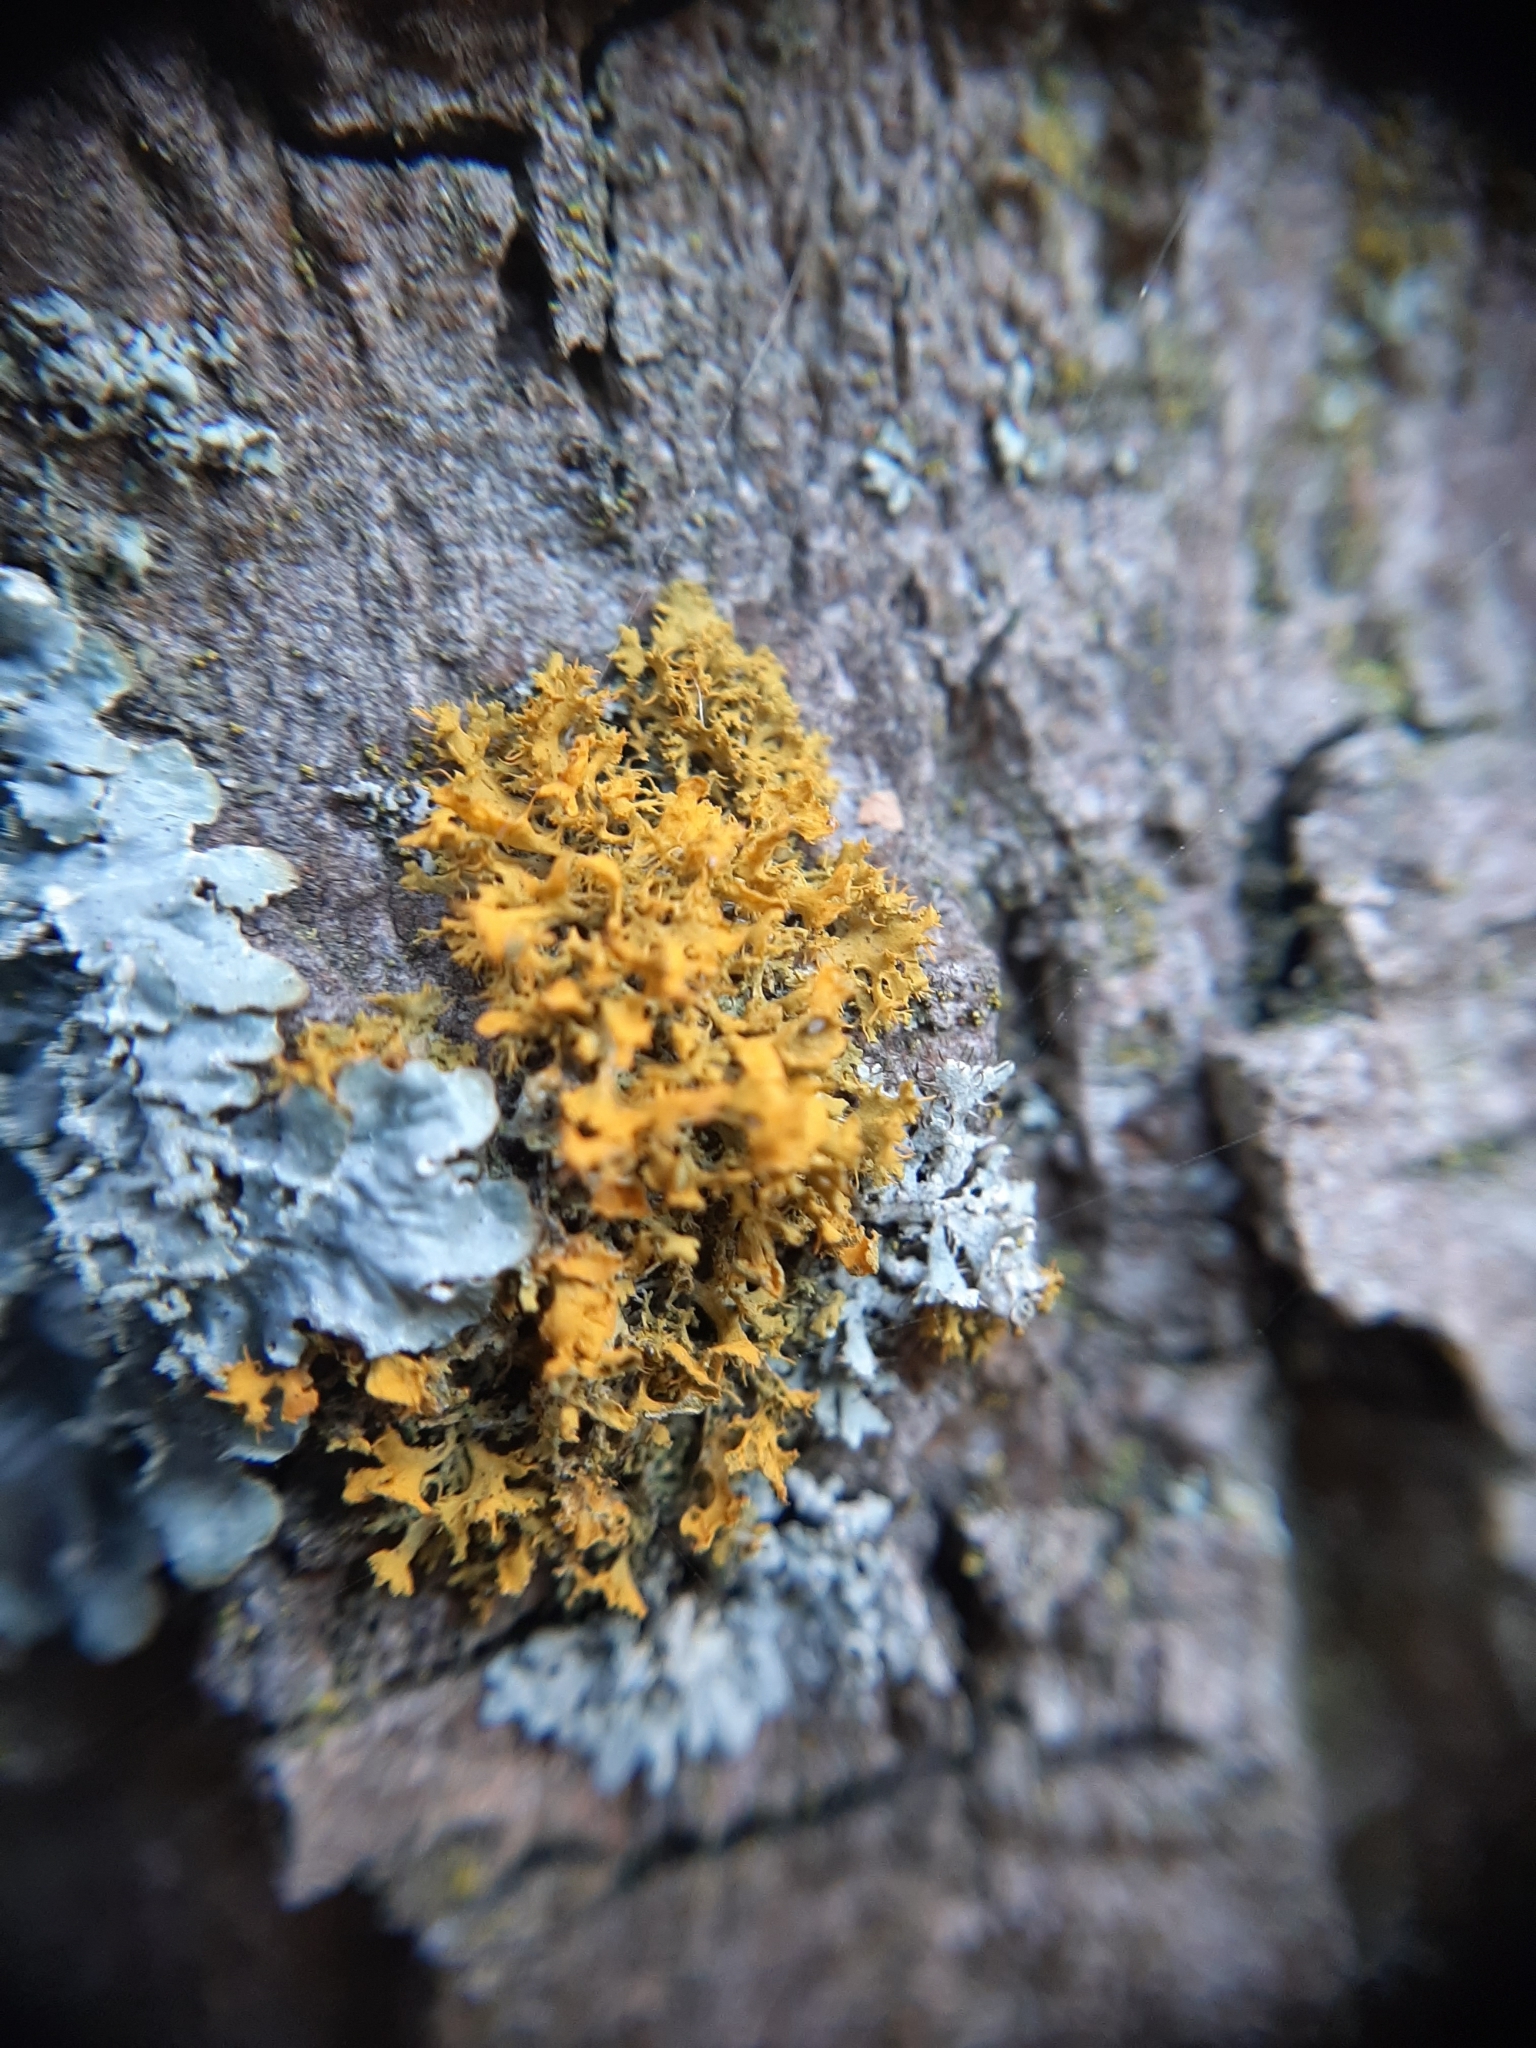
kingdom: Fungi
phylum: Ascomycota
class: Lecanoromycetes
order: Teloschistales
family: Teloschistaceae
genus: Teloschistes
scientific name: Teloschistes velifer
